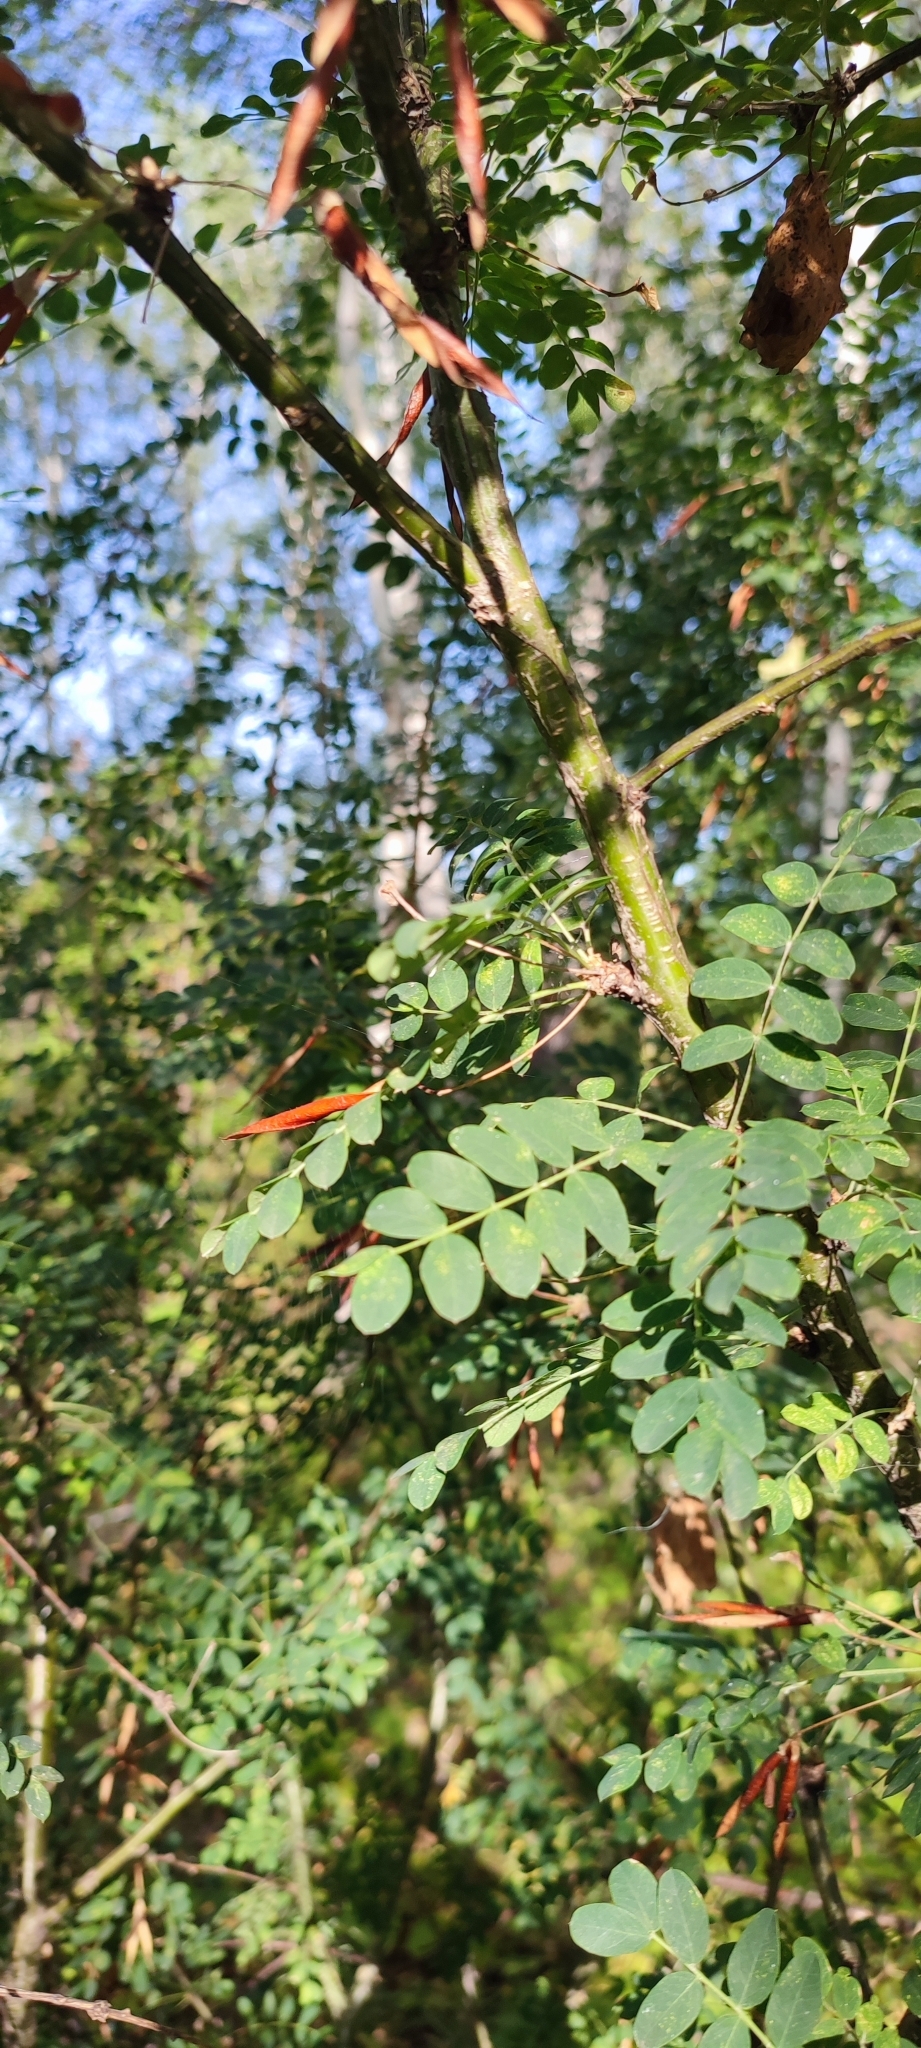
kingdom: Plantae
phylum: Tracheophyta
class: Magnoliopsida
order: Fabales
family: Fabaceae
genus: Caragana
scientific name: Caragana arborescens
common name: Siberian peashrub
